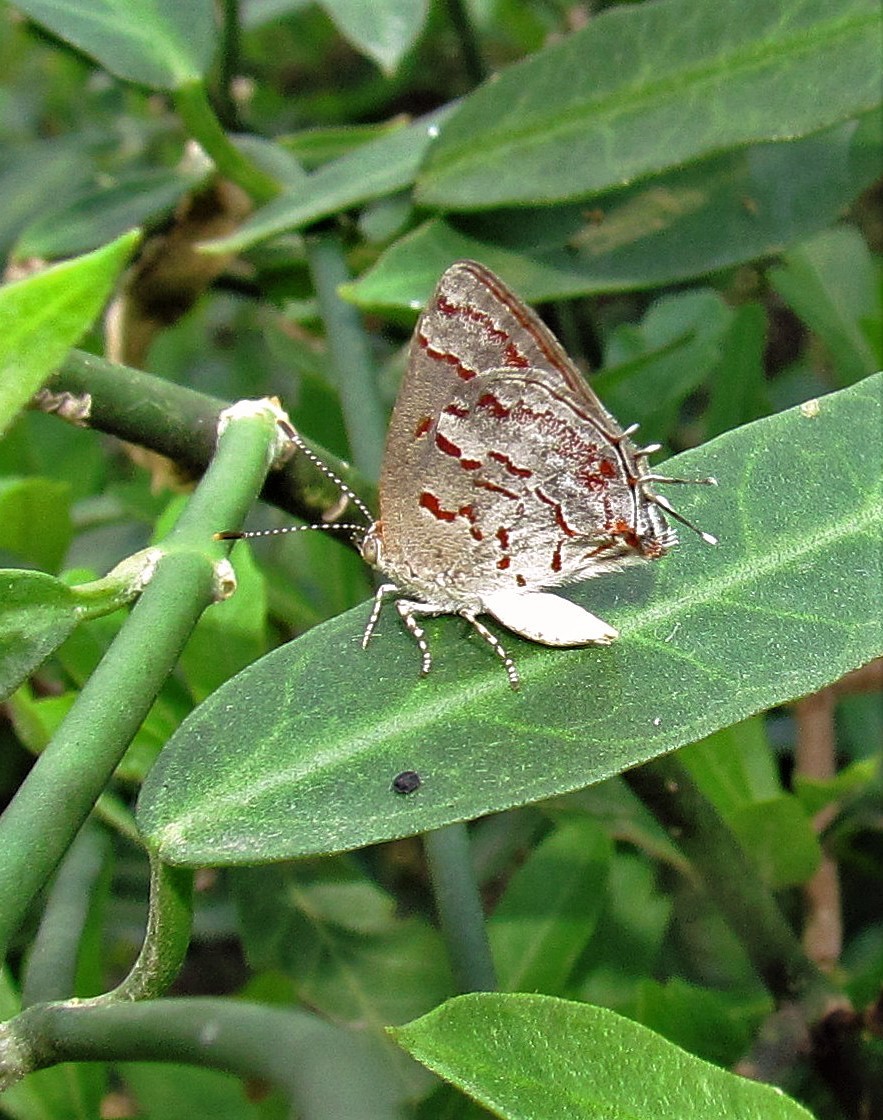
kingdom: Animalia
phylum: Arthropoda
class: Insecta
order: Lepidoptera
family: Lycaenidae
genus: Thecla
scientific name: Thecla cruenta
